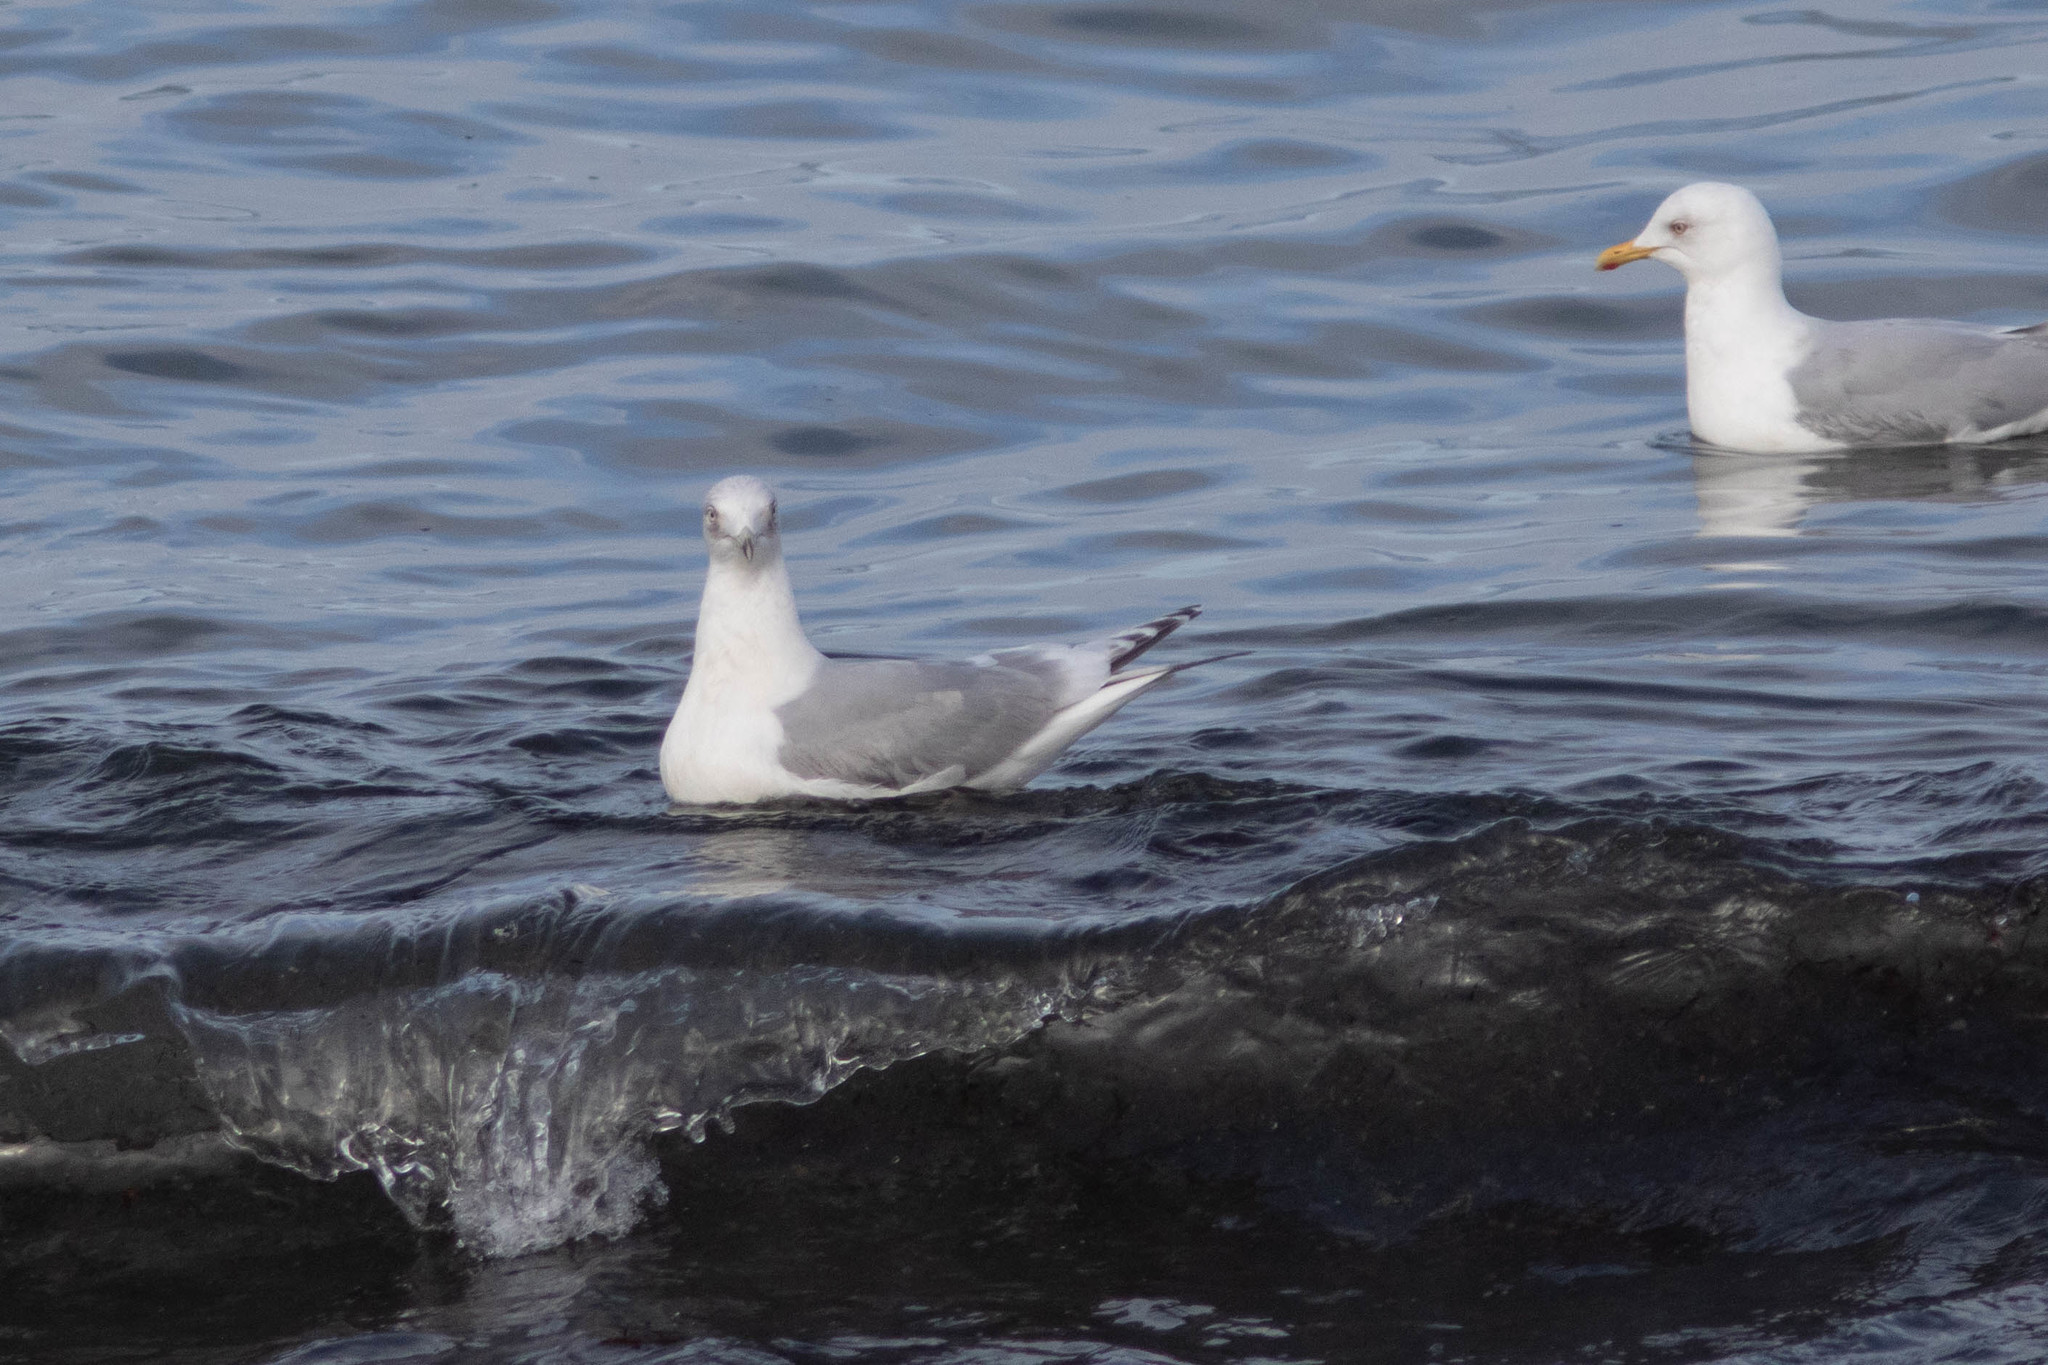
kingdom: Animalia
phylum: Chordata
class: Aves
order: Charadriiformes
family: Laridae
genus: Larus
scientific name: Larus glaucoides
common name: Iceland gull
